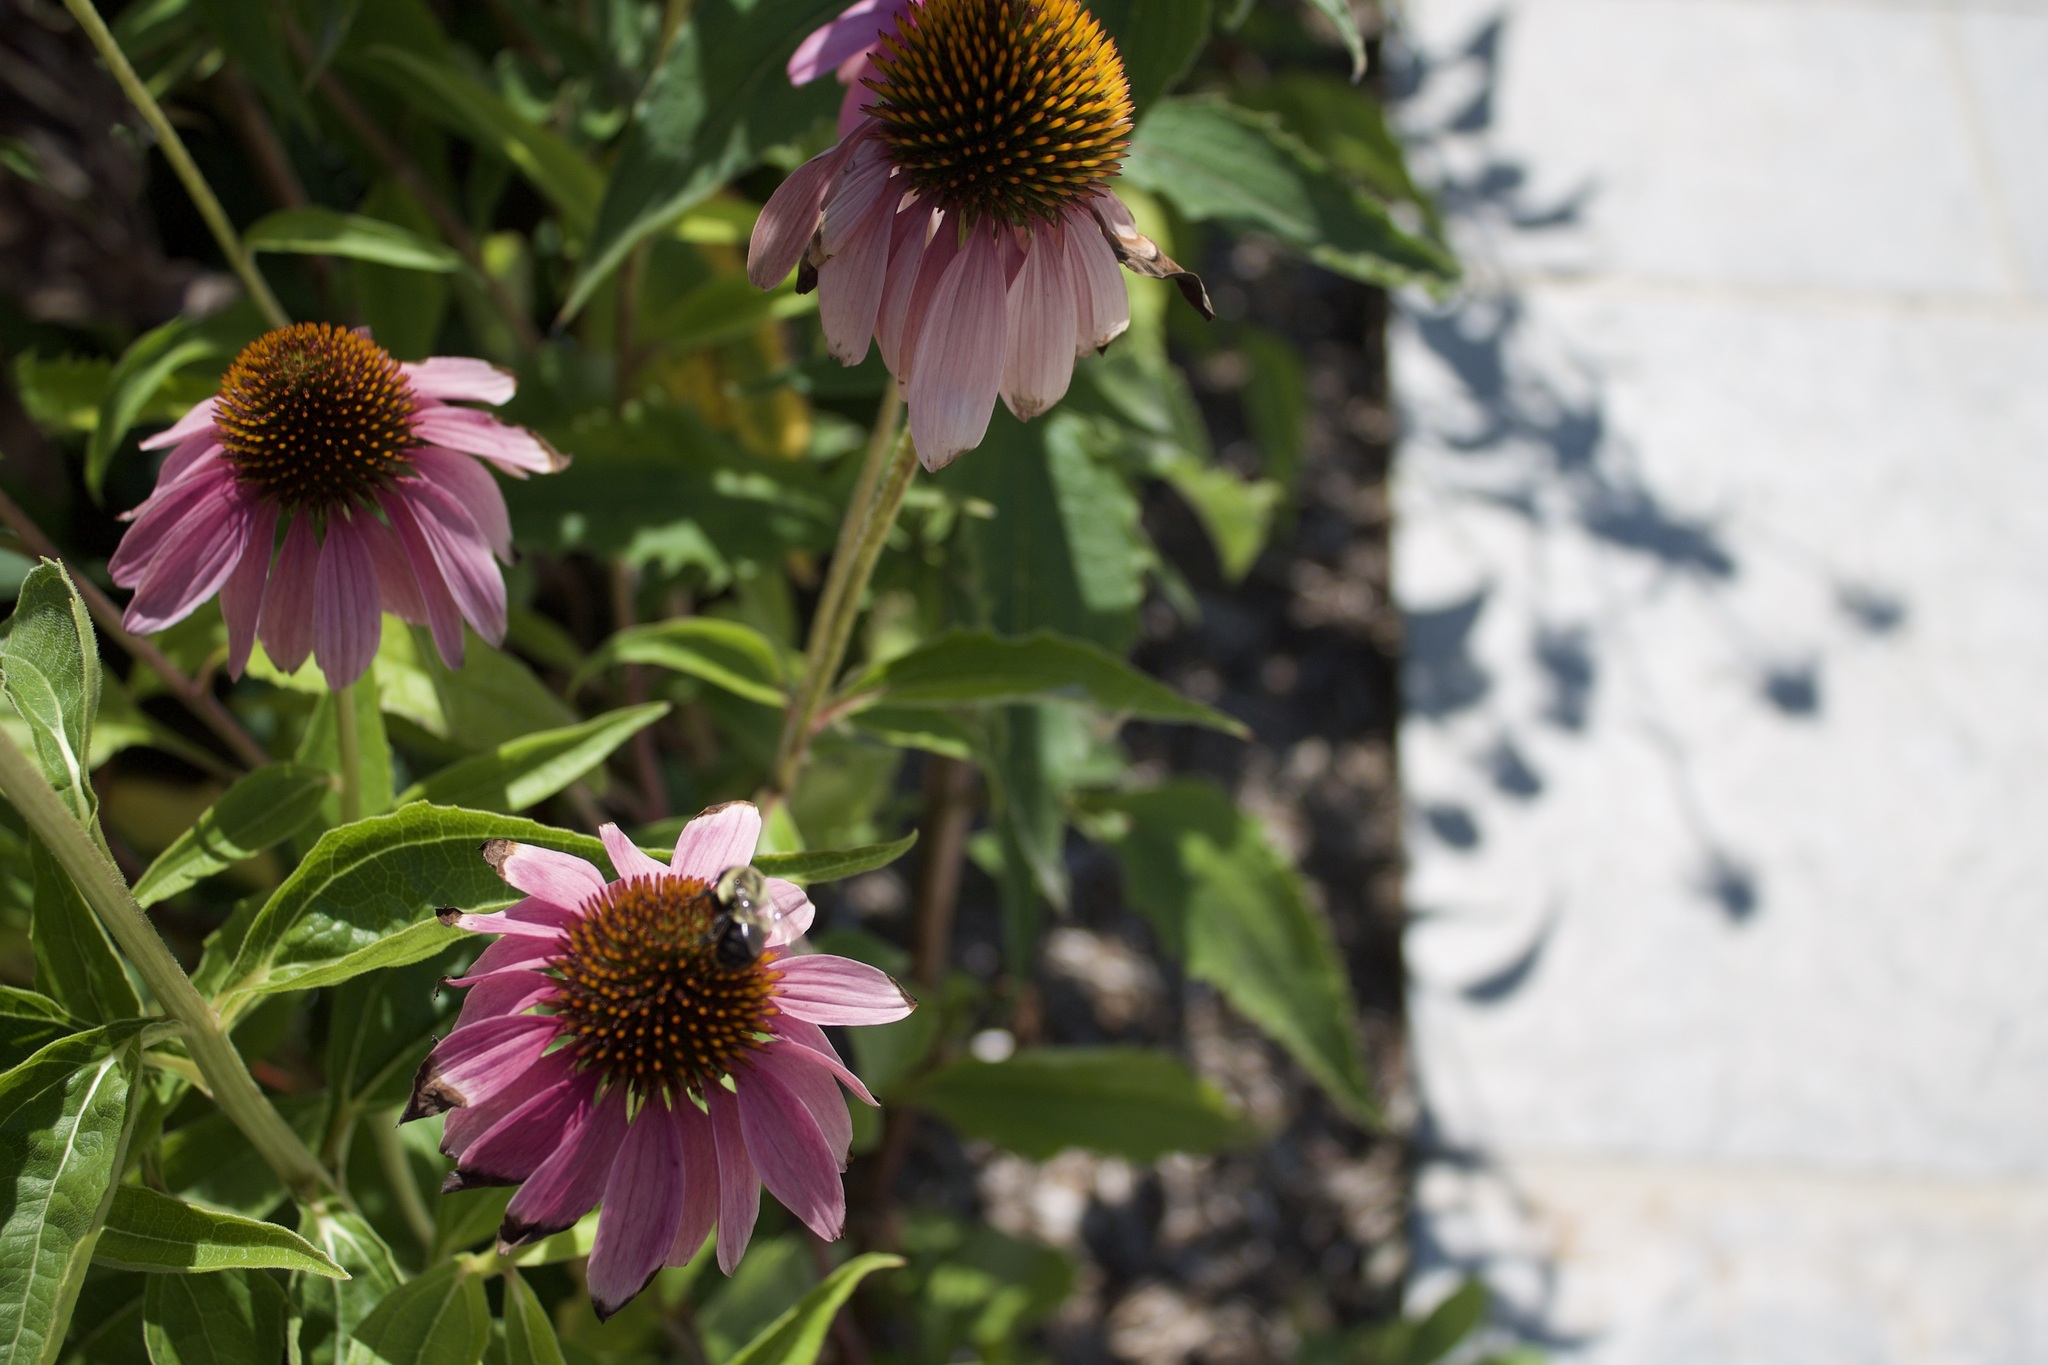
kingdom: Animalia
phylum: Arthropoda
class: Insecta
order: Hymenoptera
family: Apidae
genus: Bombus
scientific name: Bombus impatiens
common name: Common eastern bumble bee
